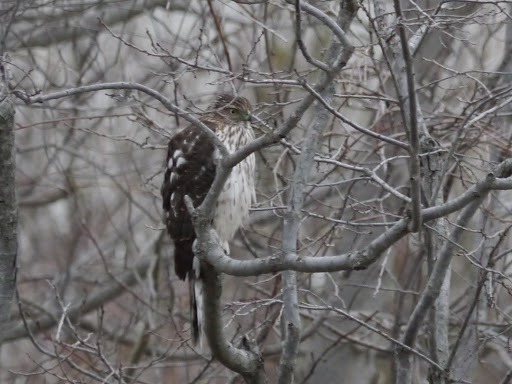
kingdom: Animalia
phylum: Chordata
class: Aves
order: Accipitriformes
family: Accipitridae
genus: Accipiter
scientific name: Accipiter cooperii
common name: Cooper's hawk
